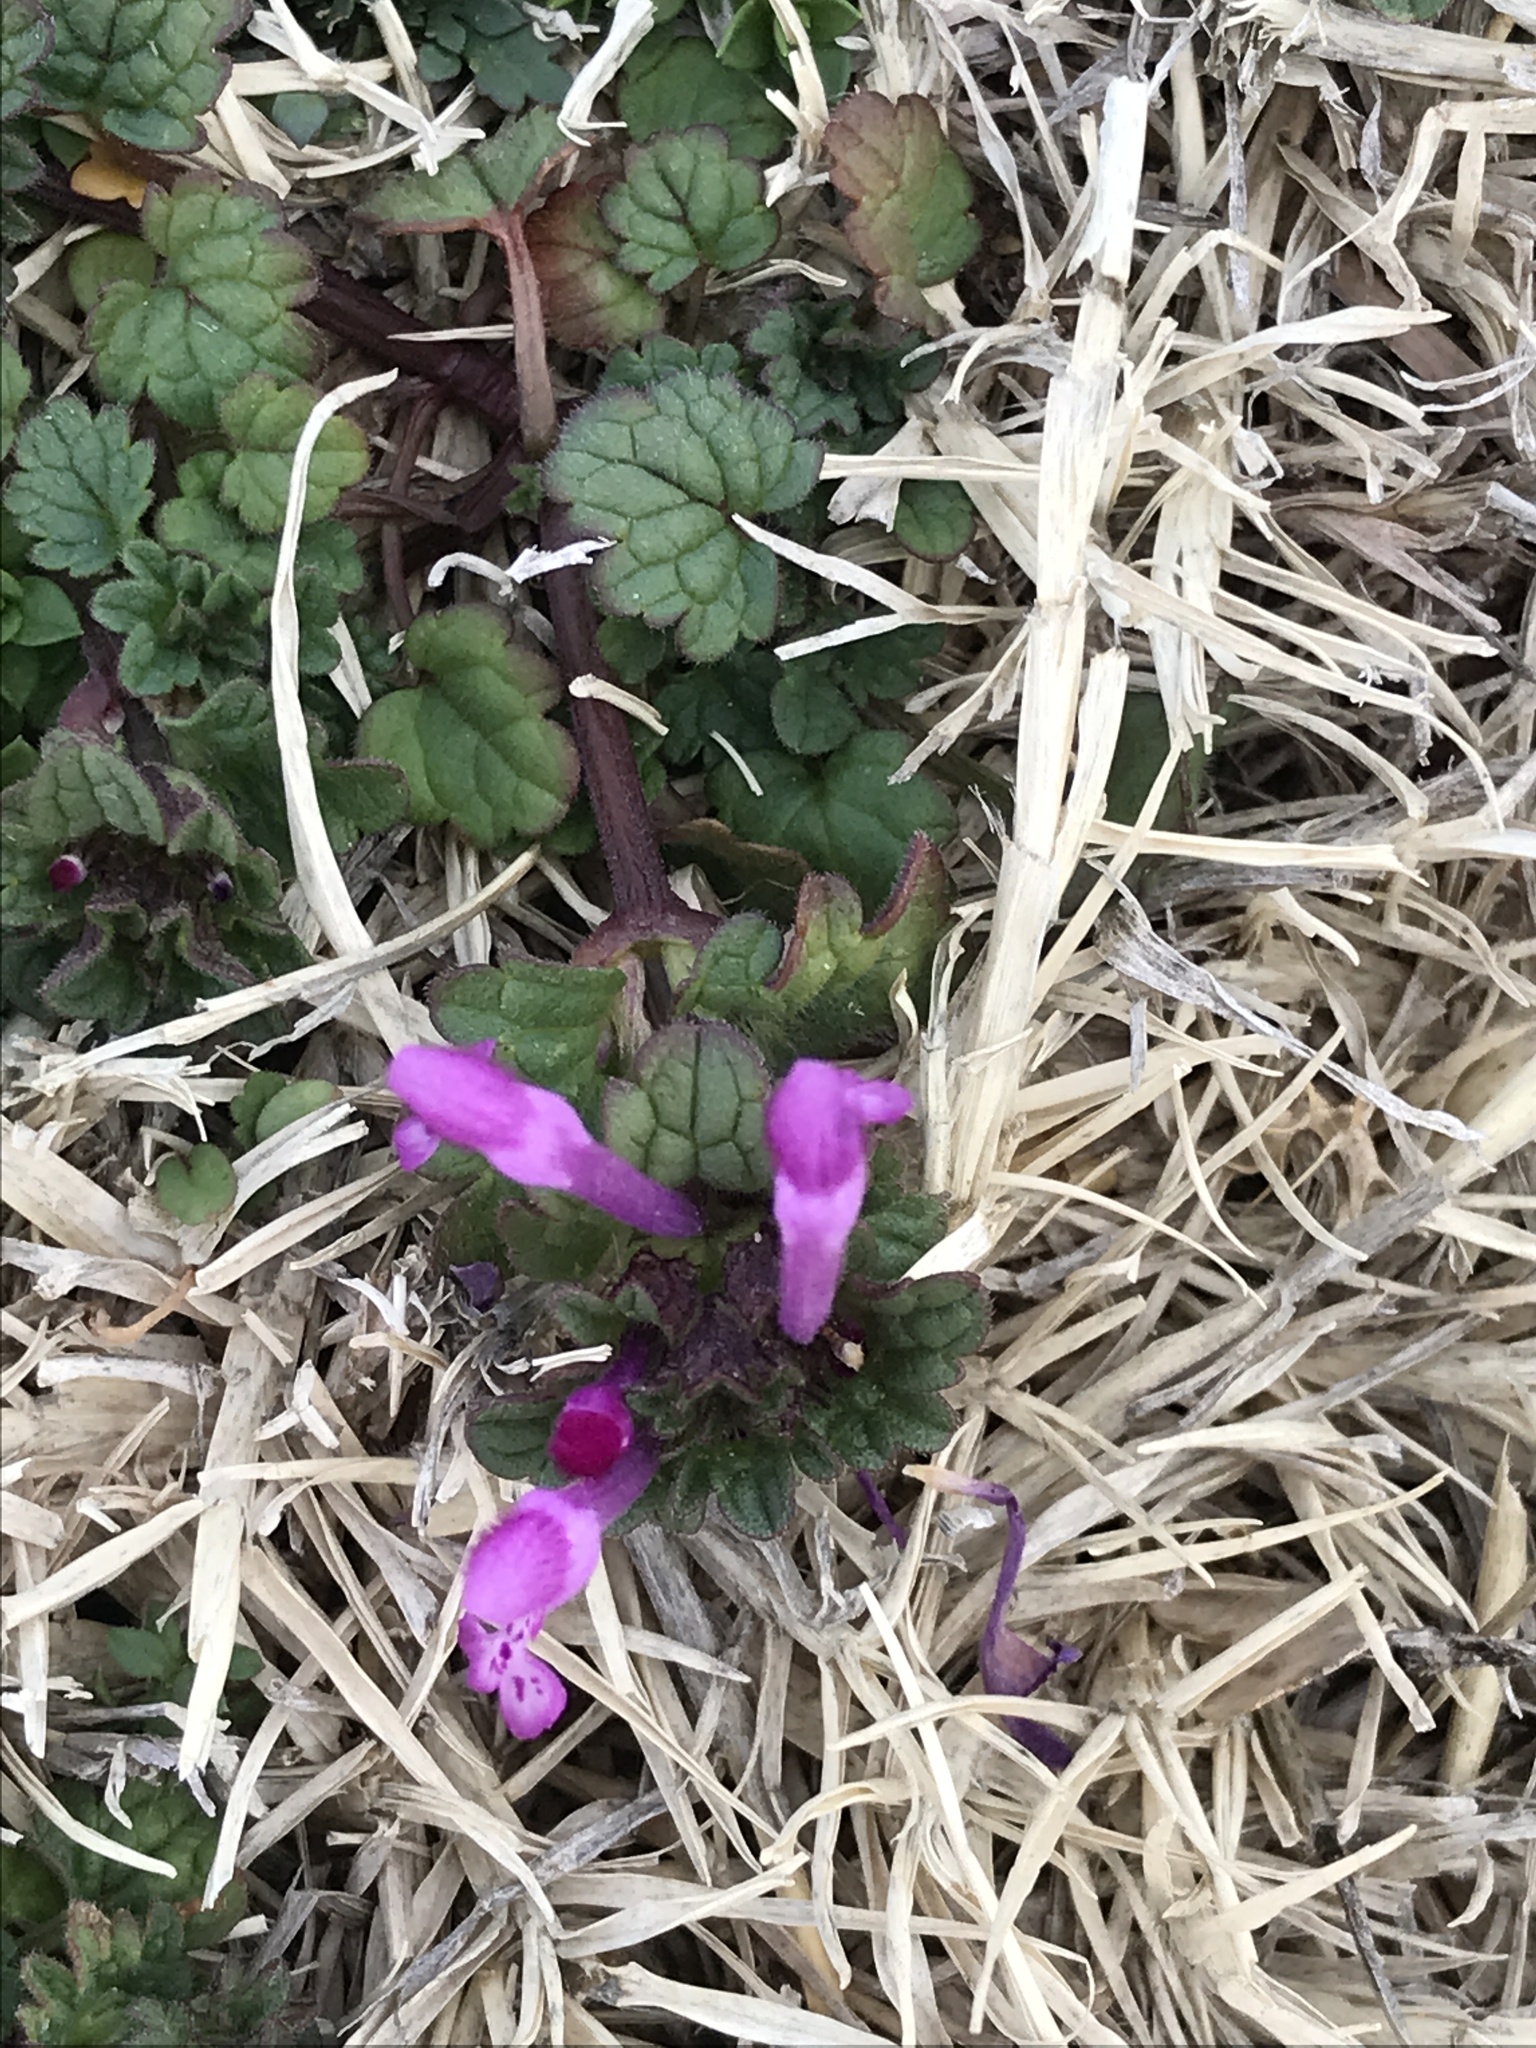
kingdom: Plantae
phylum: Tracheophyta
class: Magnoliopsida
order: Lamiales
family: Lamiaceae
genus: Lamium
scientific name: Lamium amplexicaule
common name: Henbit dead-nettle
